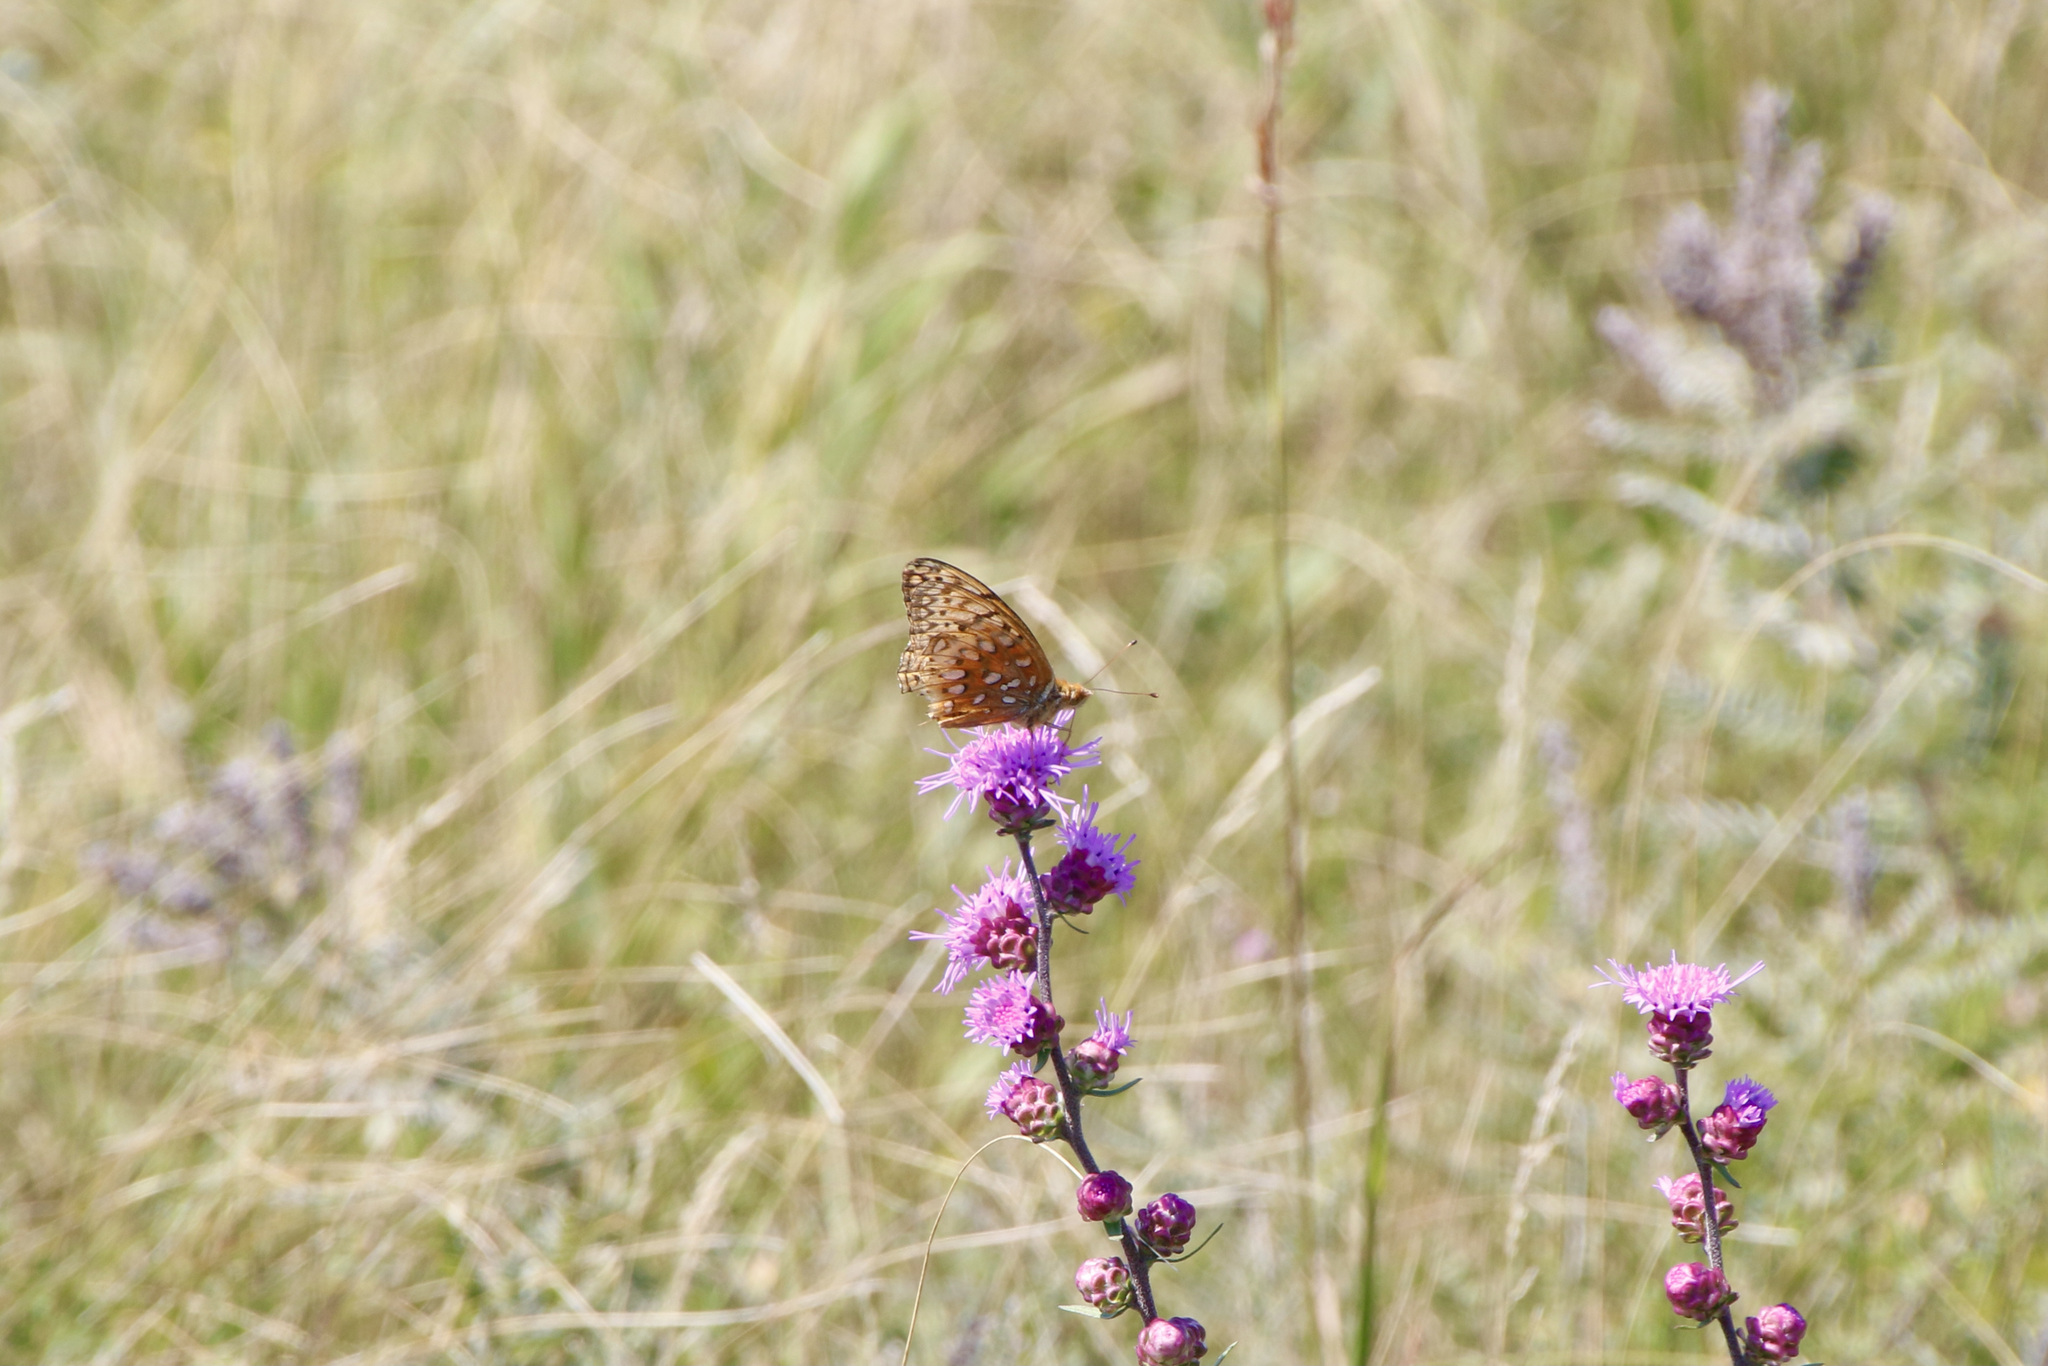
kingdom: Animalia
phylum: Arthropoda
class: Insecta
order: Lepidoptera
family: Nymphalidae
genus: Speyeria
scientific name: Speyeria cybele
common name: Great spangled fritillary
